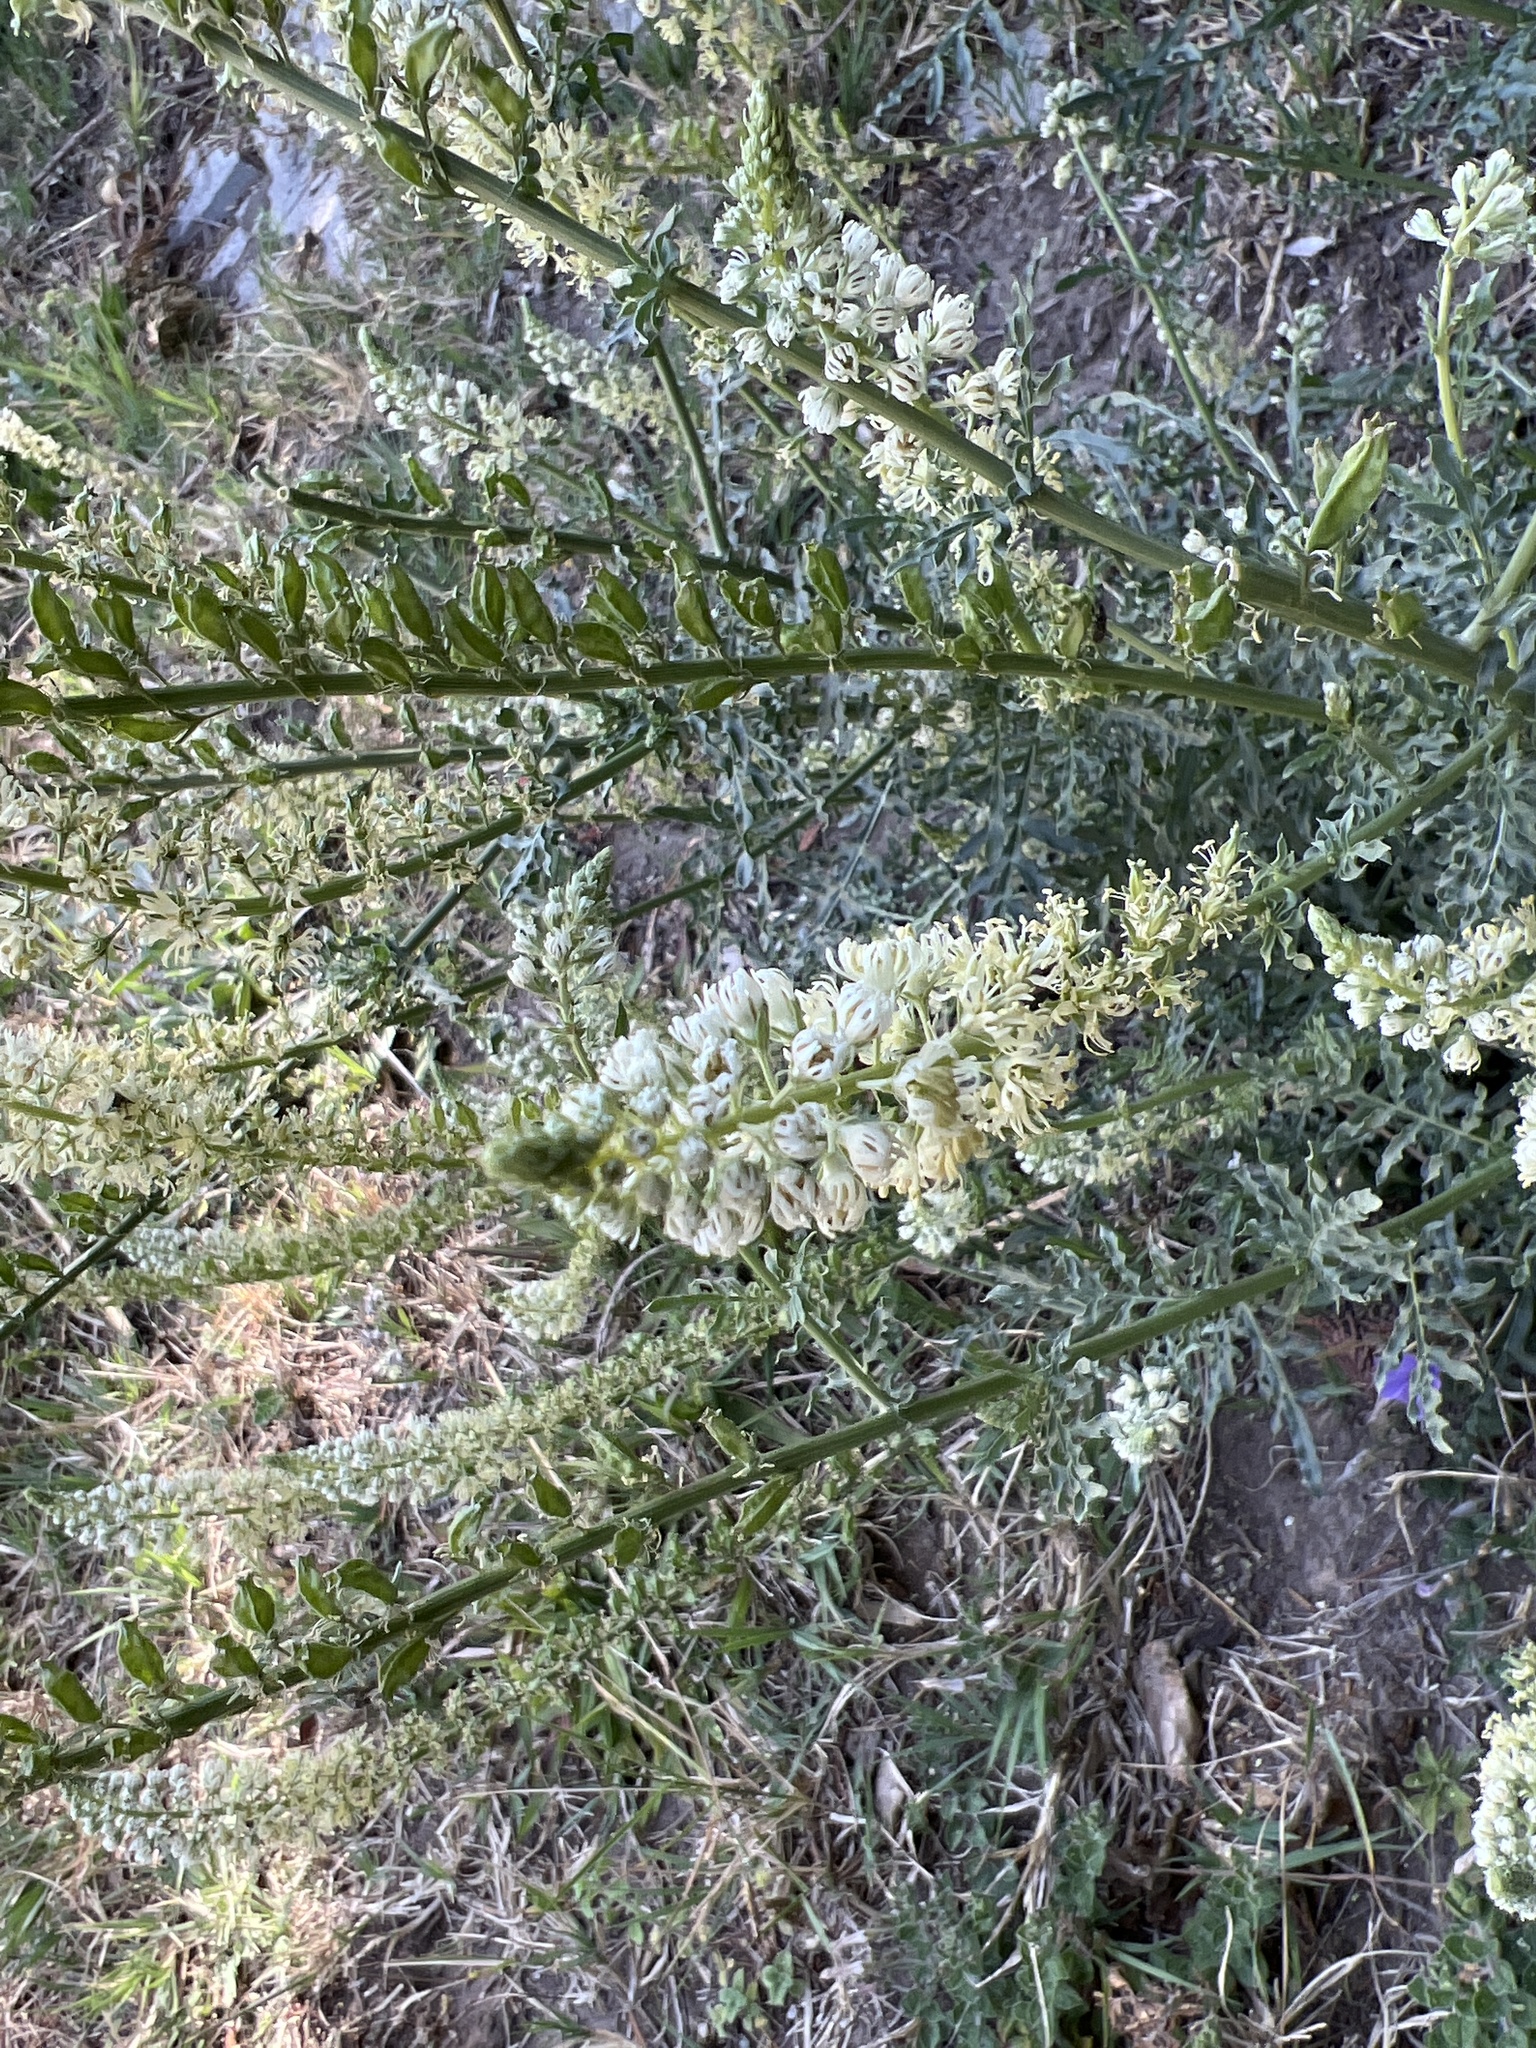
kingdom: Plantae
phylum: Tracheophyta
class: Magnoliopsida
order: Brassicales
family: Resedaceae
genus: Reseda
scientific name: Reseda alba
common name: White mignonette
